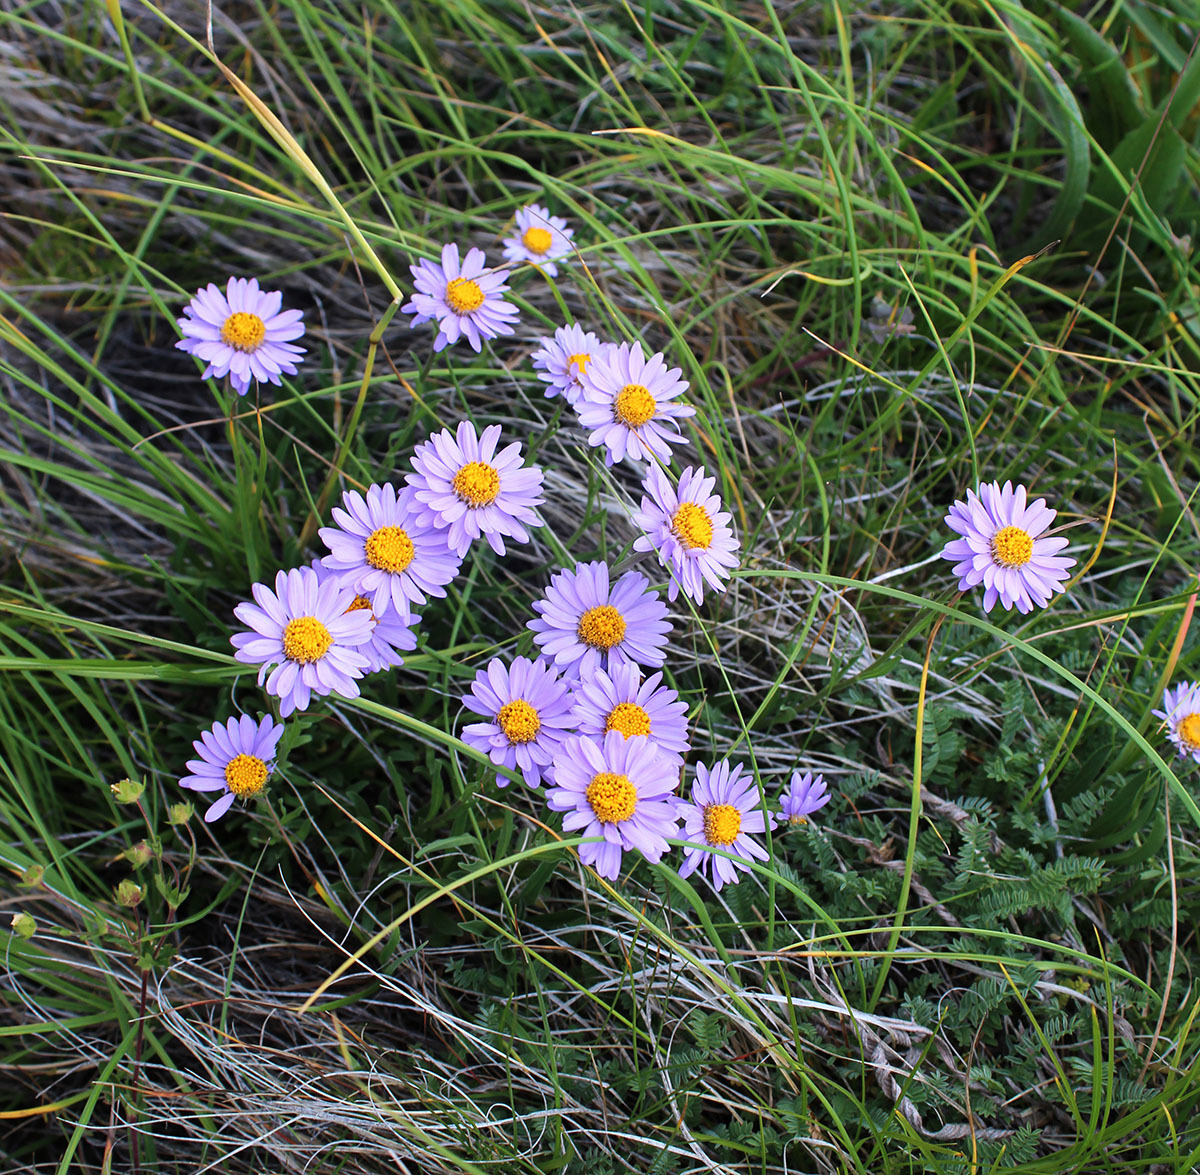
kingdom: Plantae
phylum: Tracheophyta
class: Magnoliopsida
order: Asterales
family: Asteraceae
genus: Aster
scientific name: Aster alpinus
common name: Alpine aster
